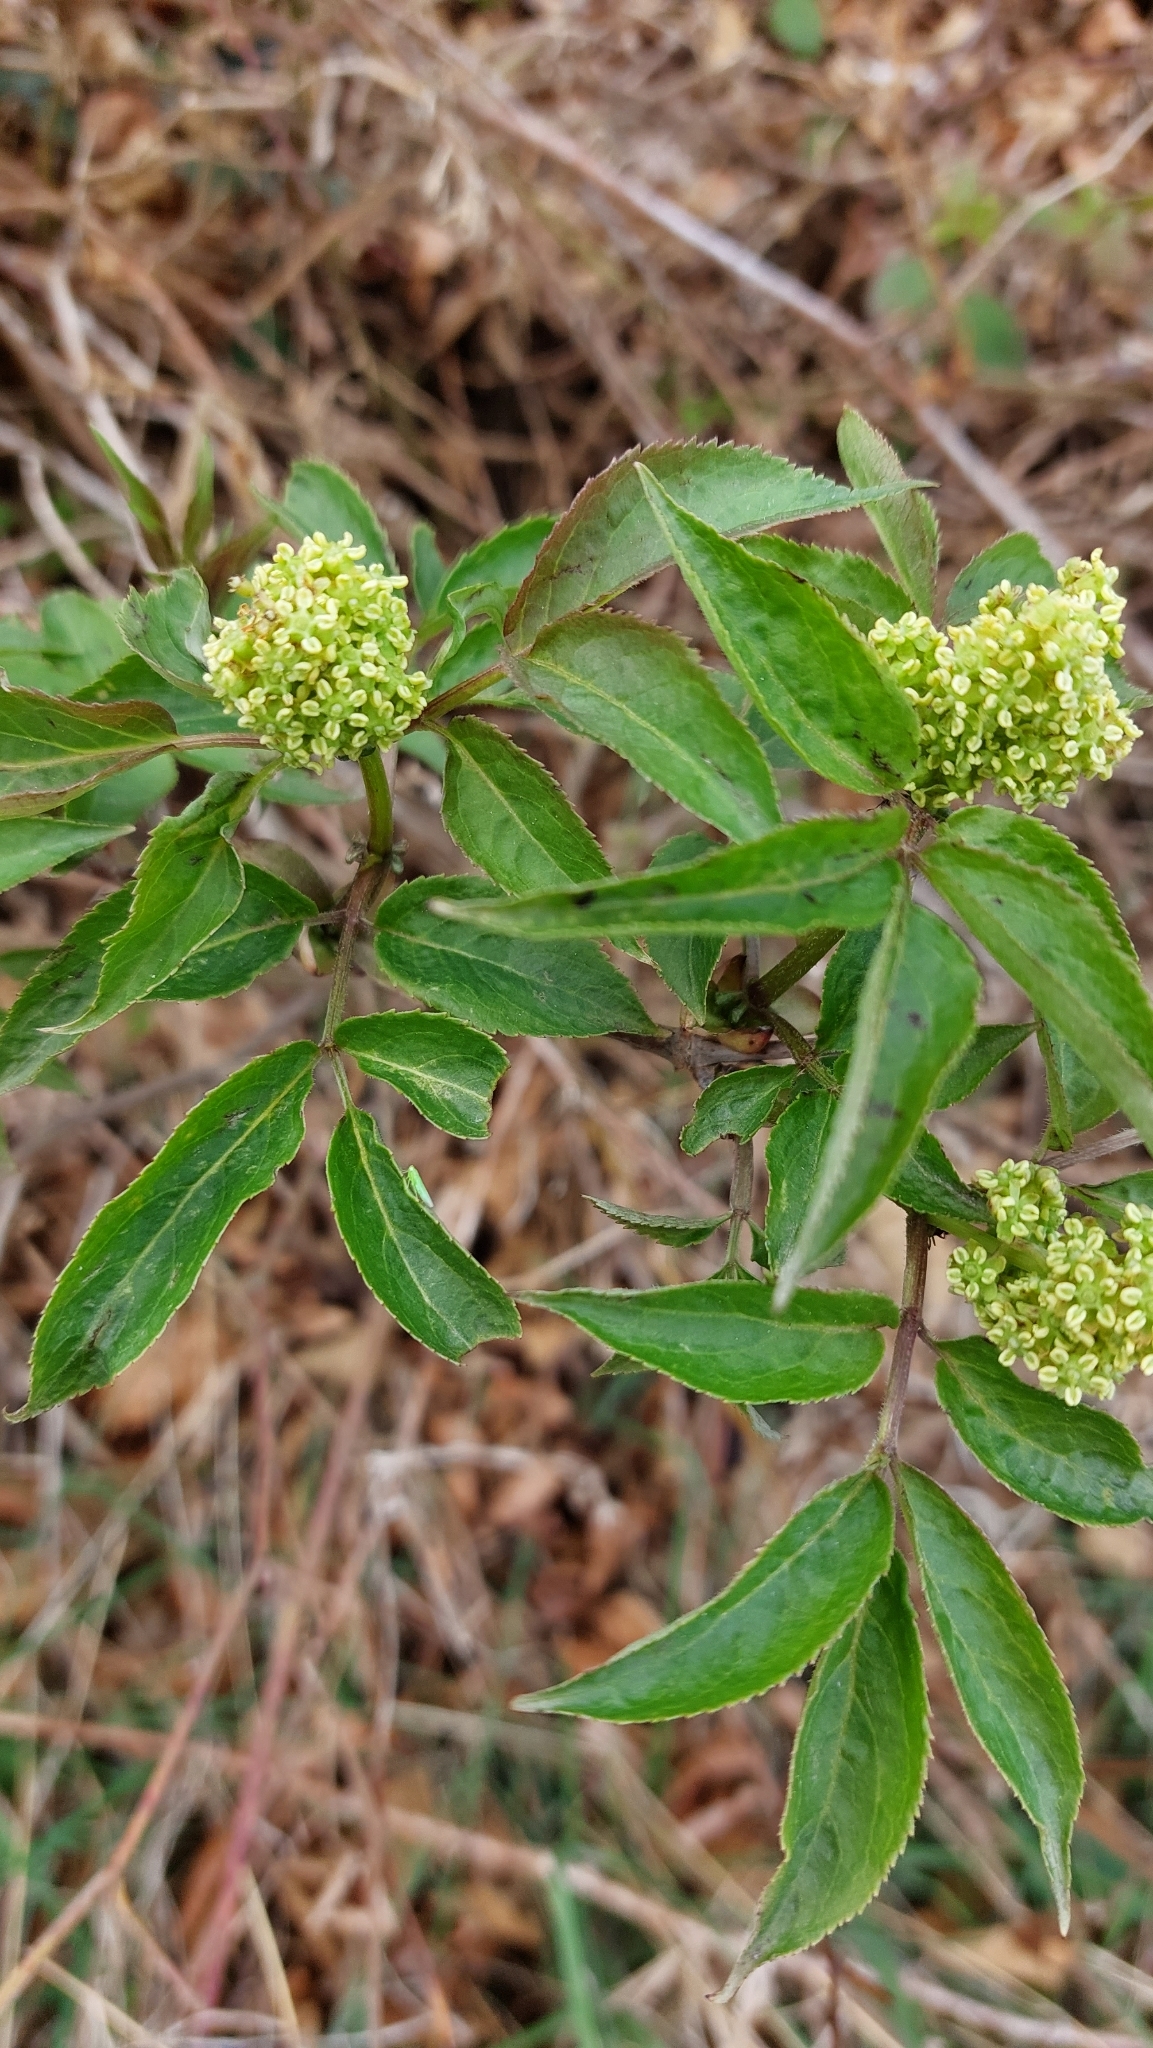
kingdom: Plantae
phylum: Tracheophyta
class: Magnoliopsida
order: Dipsacales
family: Viburnaceae
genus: Sambucus
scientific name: Sambucus racemosa
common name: Red-berried elder
